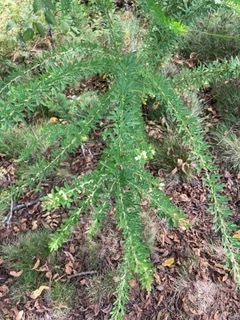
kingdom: Plantae
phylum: Tracheophyta
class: Magnoliopsida
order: Fabales
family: Fabaceae
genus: Lespedeza
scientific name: Lespedeza cuneata
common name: Chinese bush-clover
